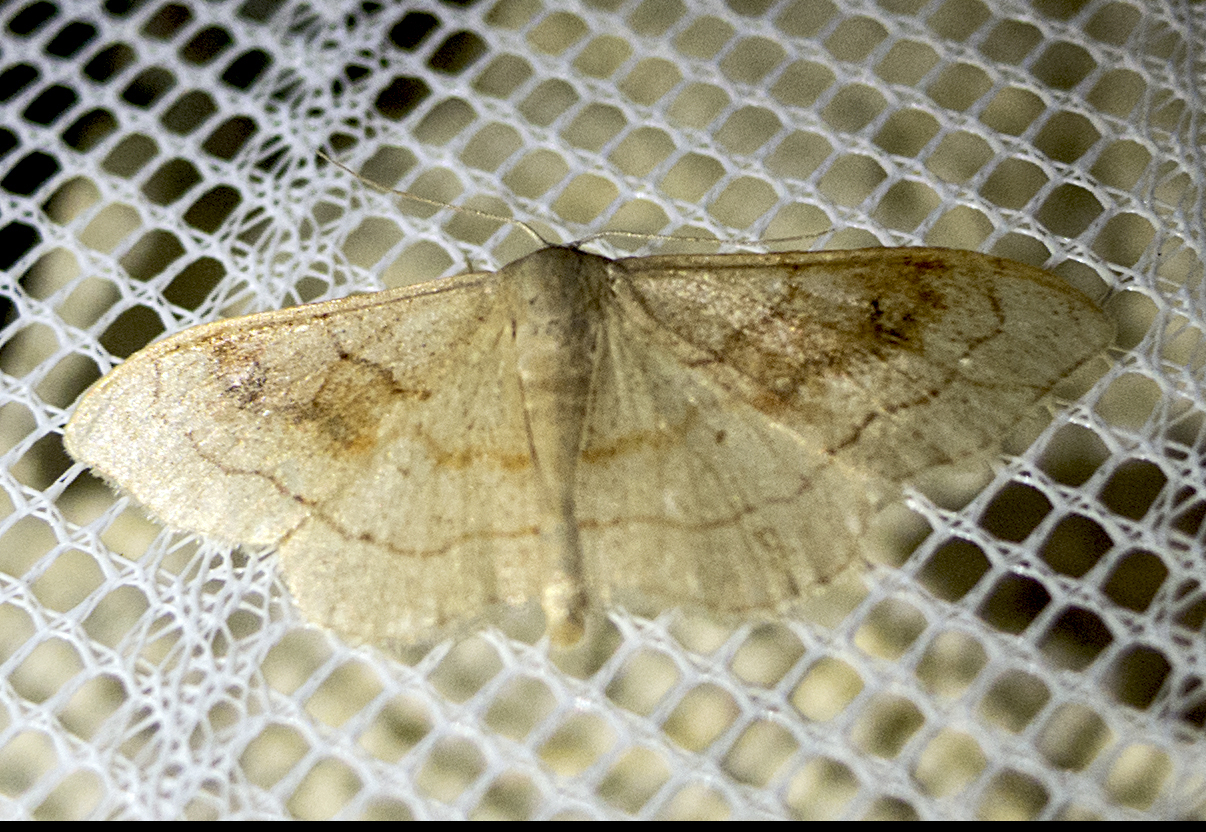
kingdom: Animalia
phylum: Arthropoda
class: Insecta
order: Lepidoptera
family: Geometridae
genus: Idaea
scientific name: Idaea bilinearia
